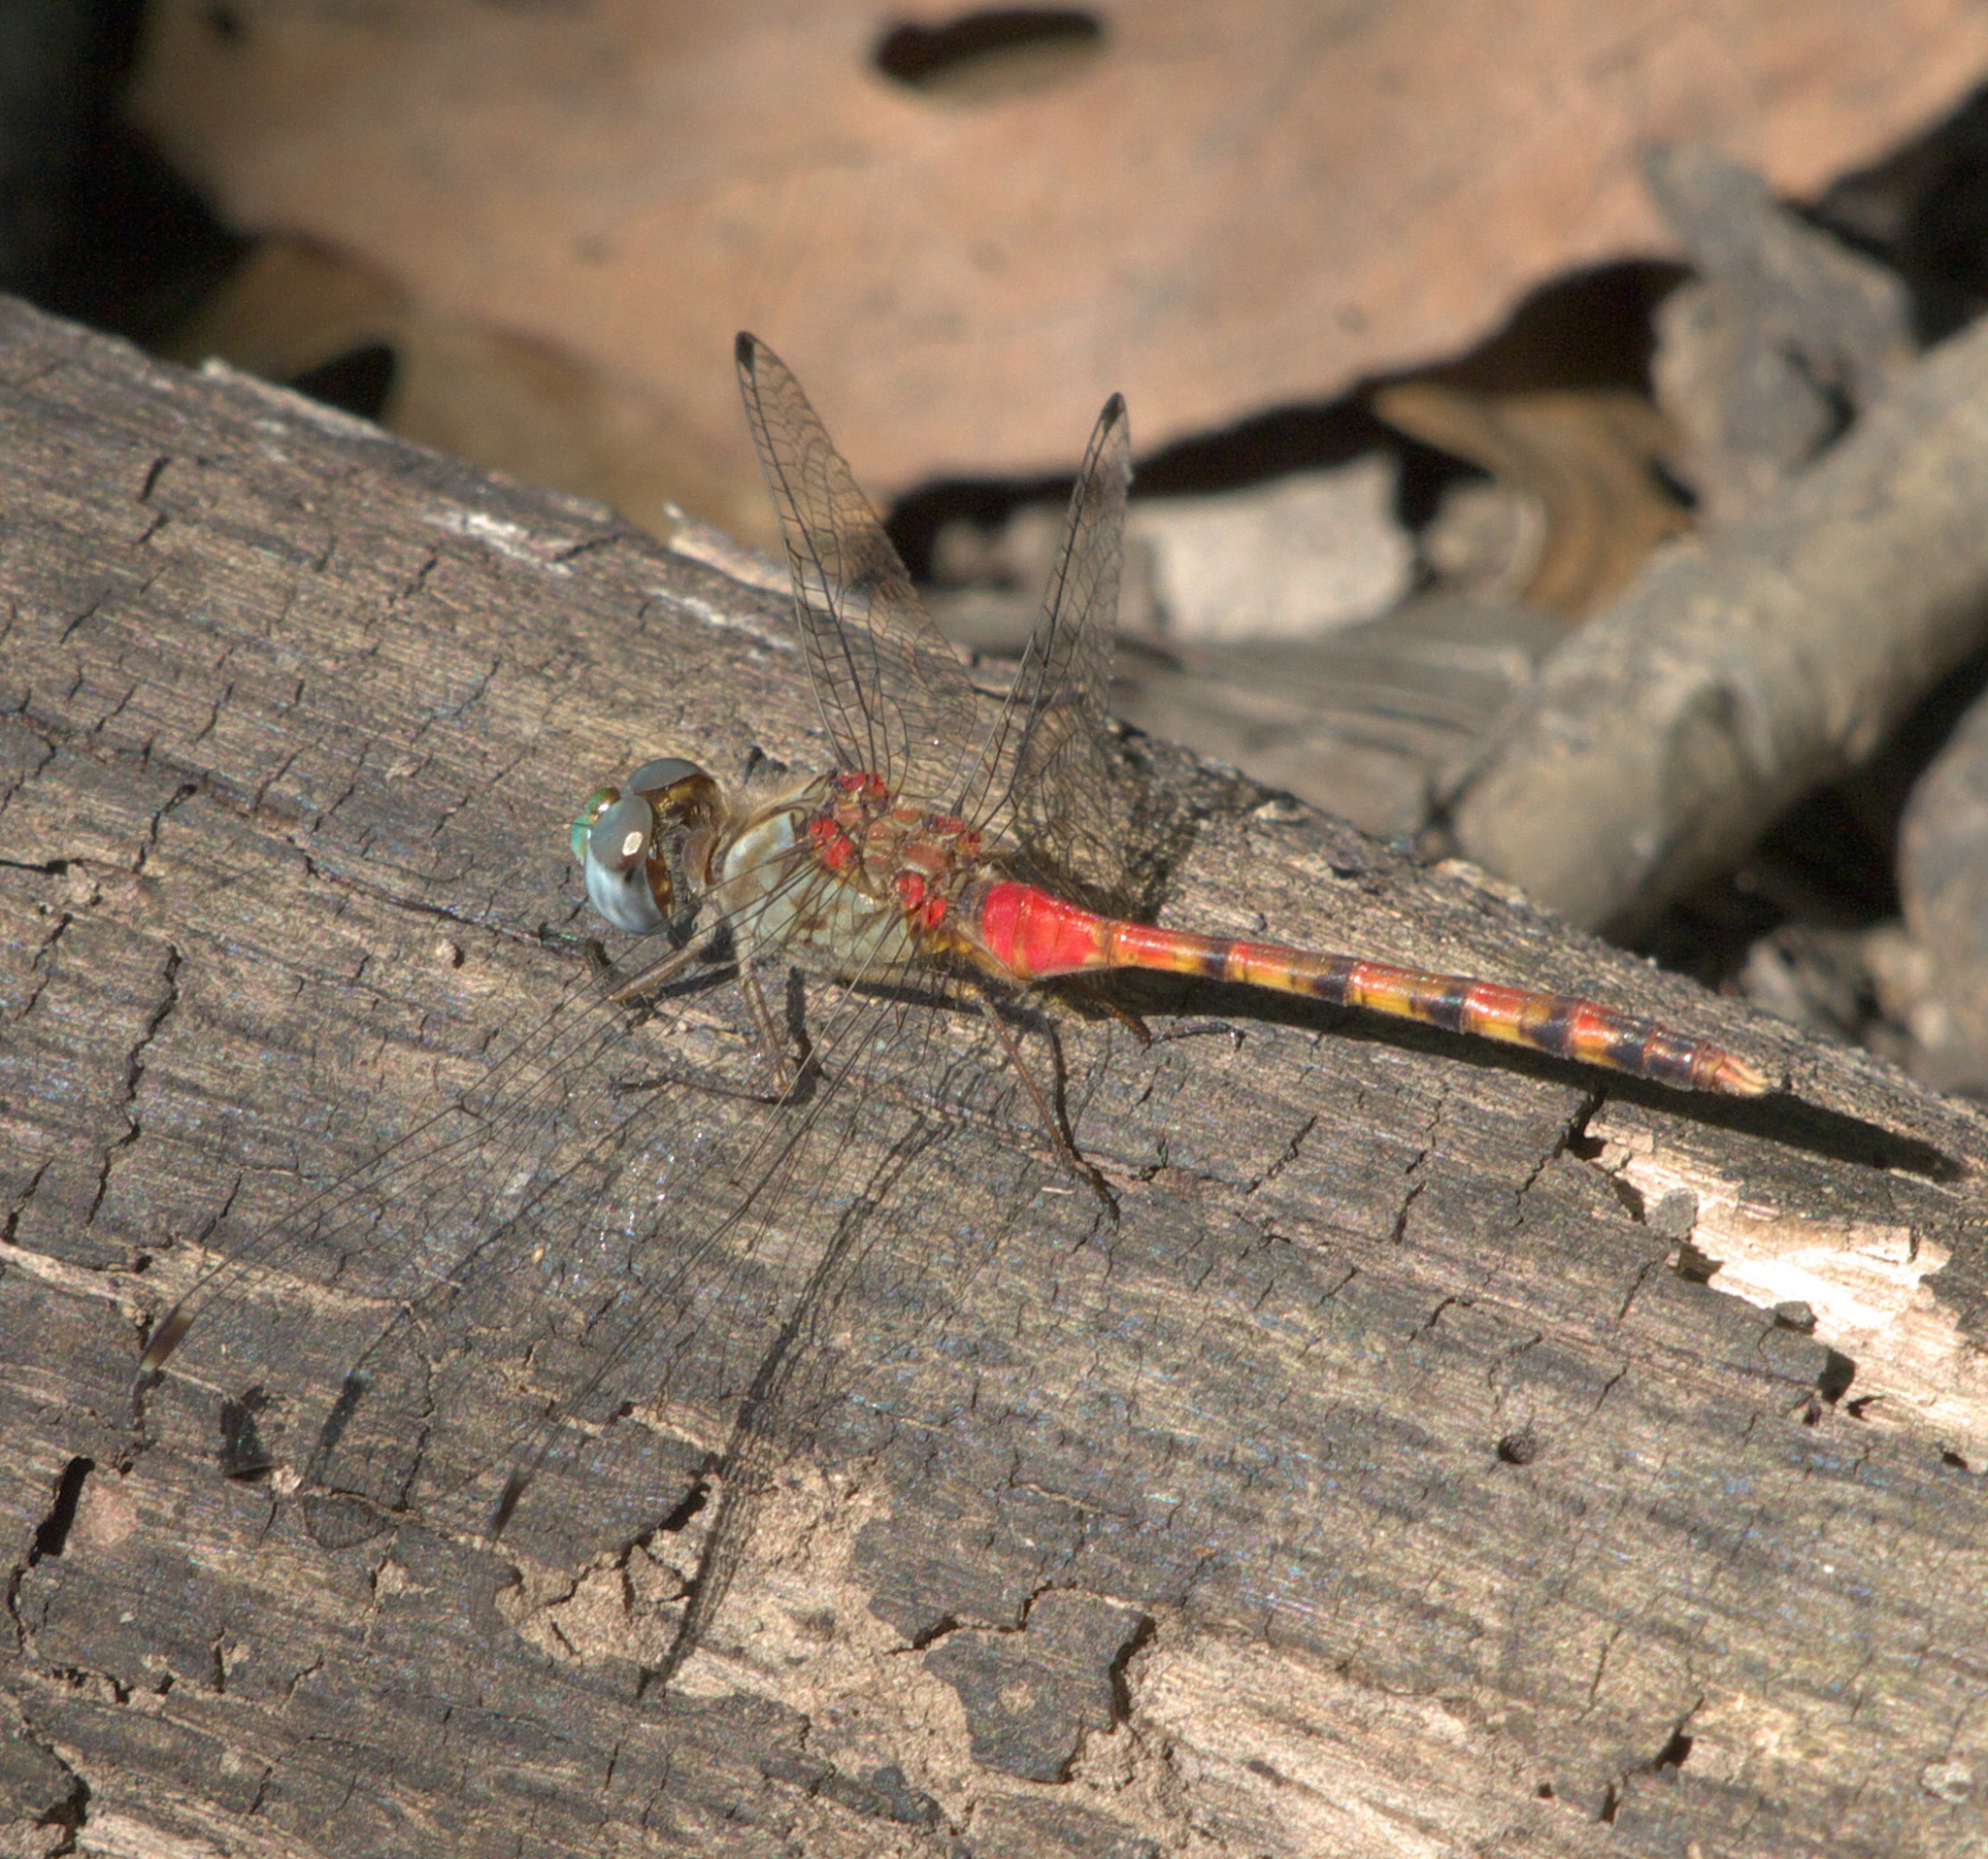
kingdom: Animalia
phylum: Arthropoda
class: Insecta
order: Odonata
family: Libellulidae
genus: Sympetrum
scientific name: Sympetrum ambiguum
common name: Blue-faced meadowhawk
